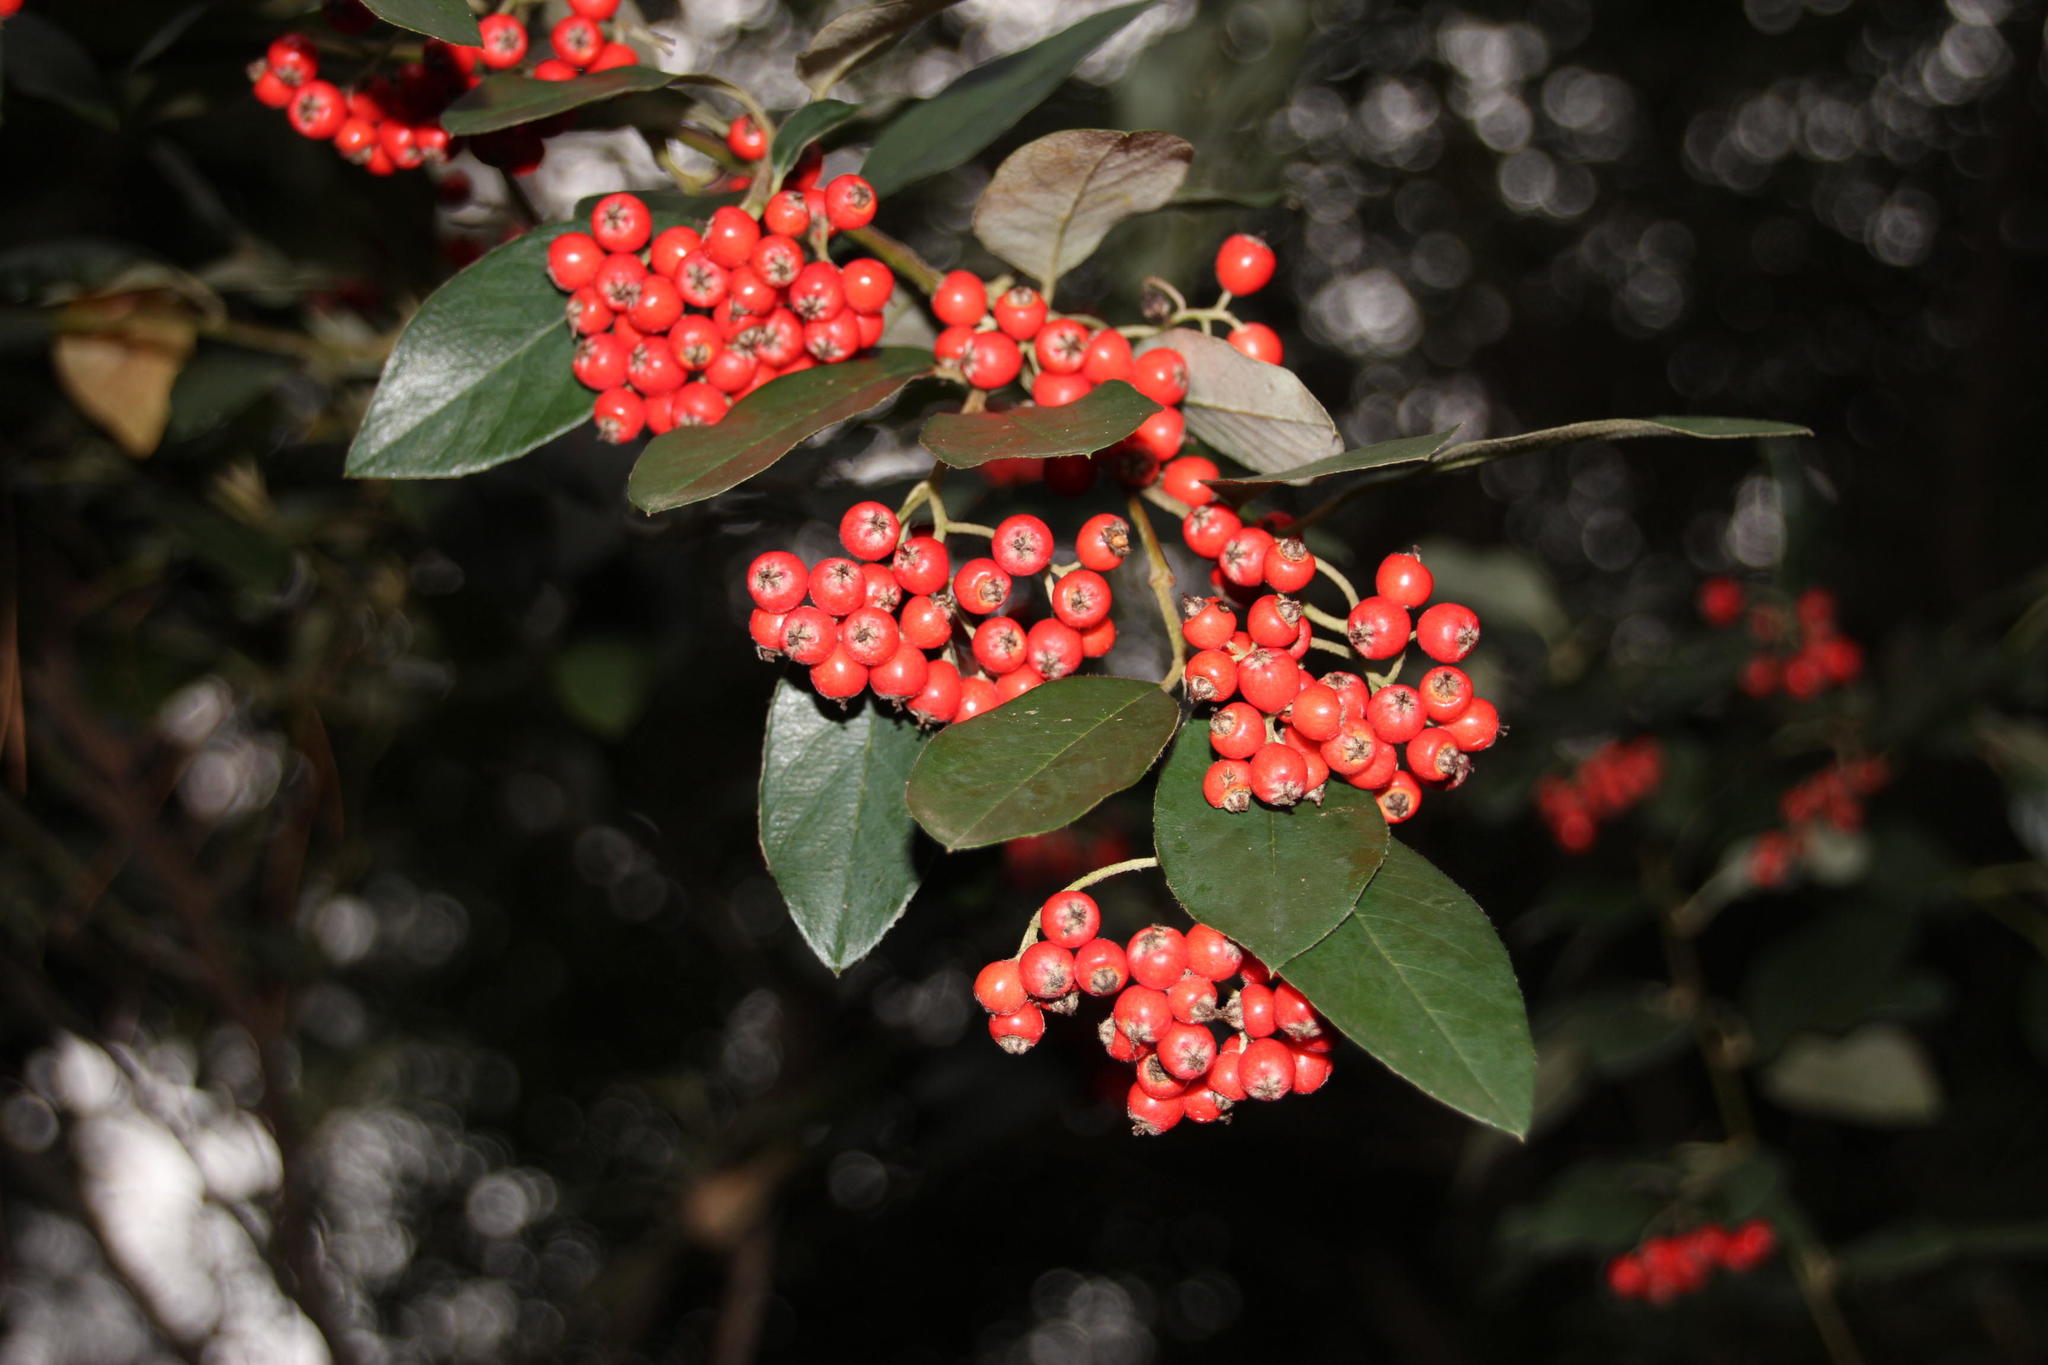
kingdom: Plantae
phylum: Tracheophyta
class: Magnoliopsida
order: Rosales
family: Rosaceae
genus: Cotoneaster
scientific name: Cotoneaster glaucophyllus
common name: Glaucous cotoneaster
